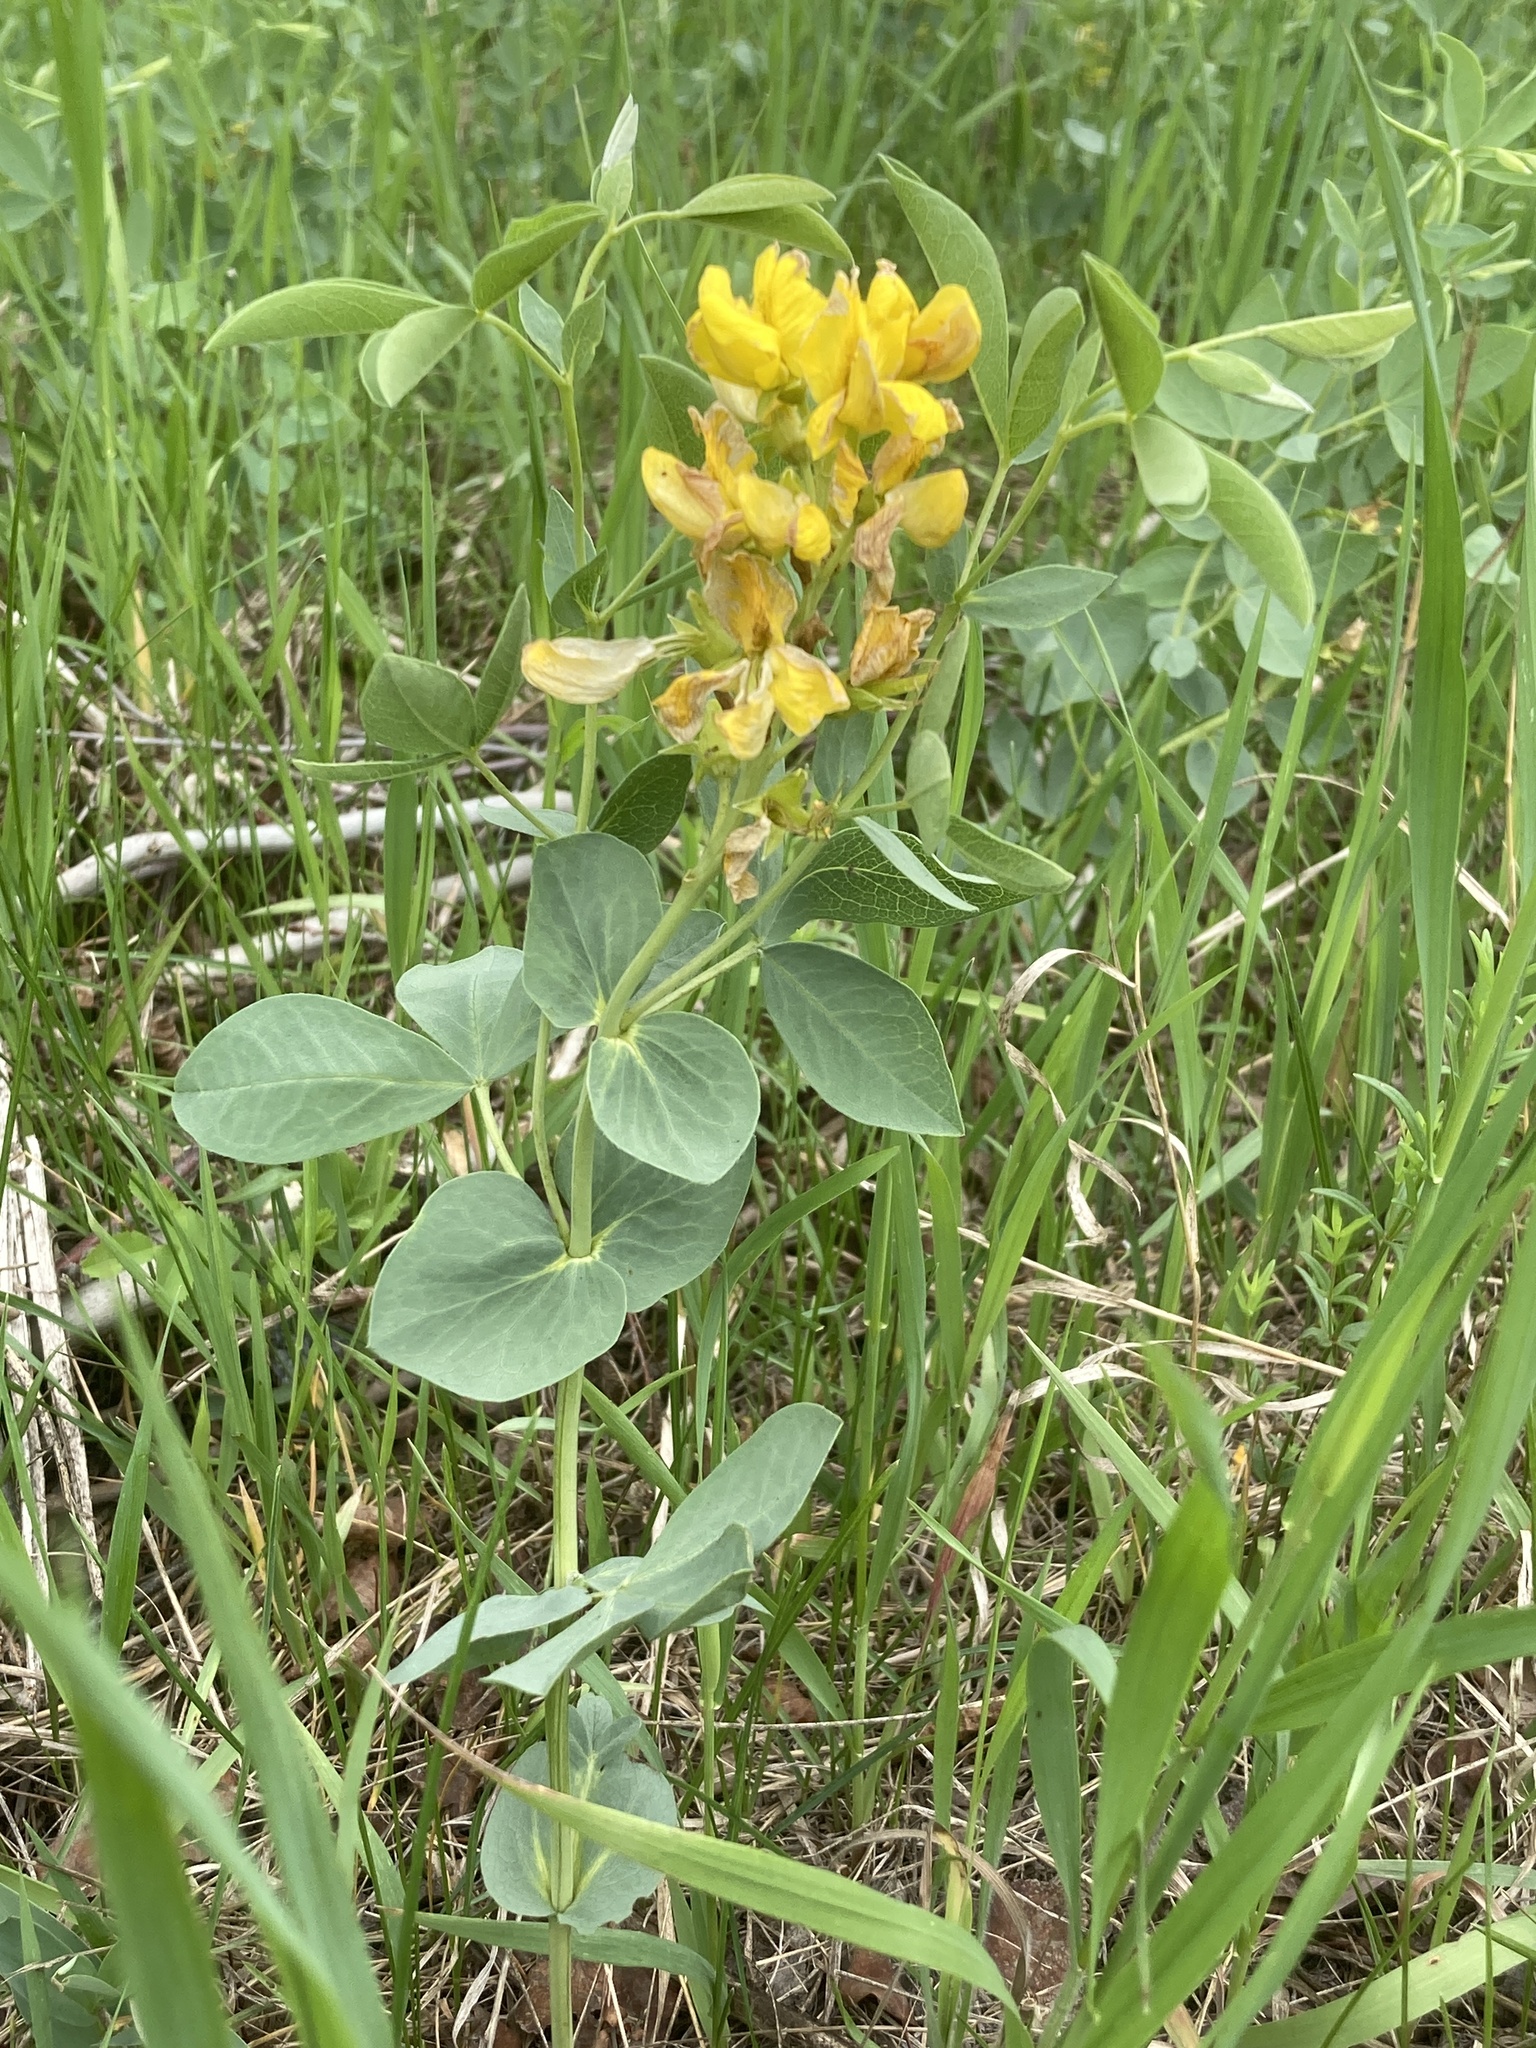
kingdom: Plantae
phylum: Tracheophyta
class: Magnoliopsida
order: Fabales
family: Fabaceae
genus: Thermopsis
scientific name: Thermopsis rhombifolia
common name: Circle-pod-pea
